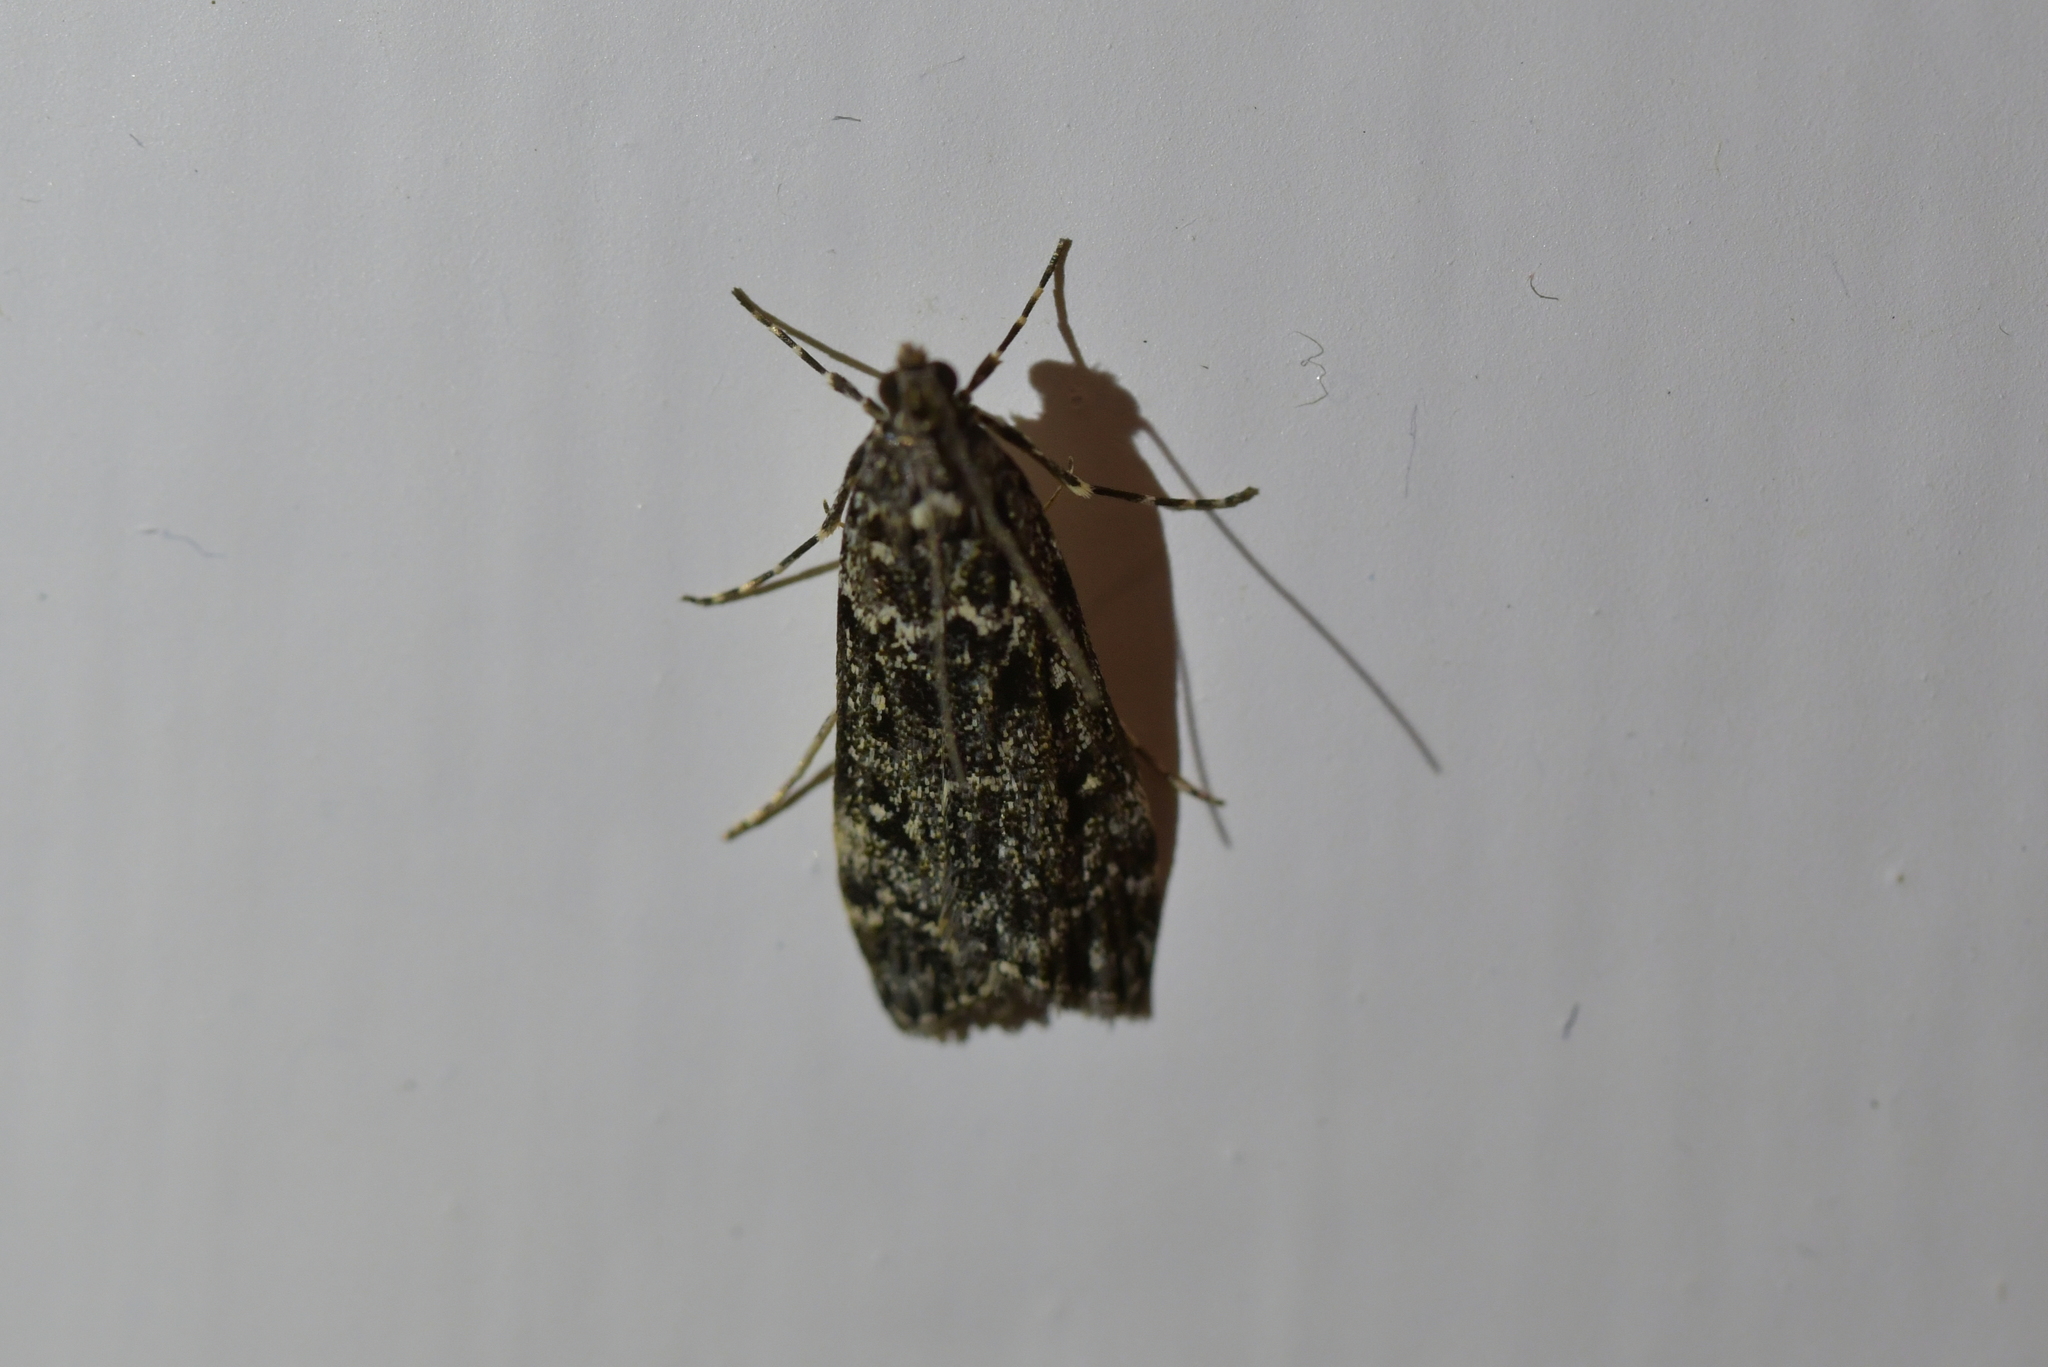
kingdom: Animalia
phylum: Arthropoda
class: Insecta
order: Lepidoptera
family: Crambidae
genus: Eudonia
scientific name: Eudonia philerga
